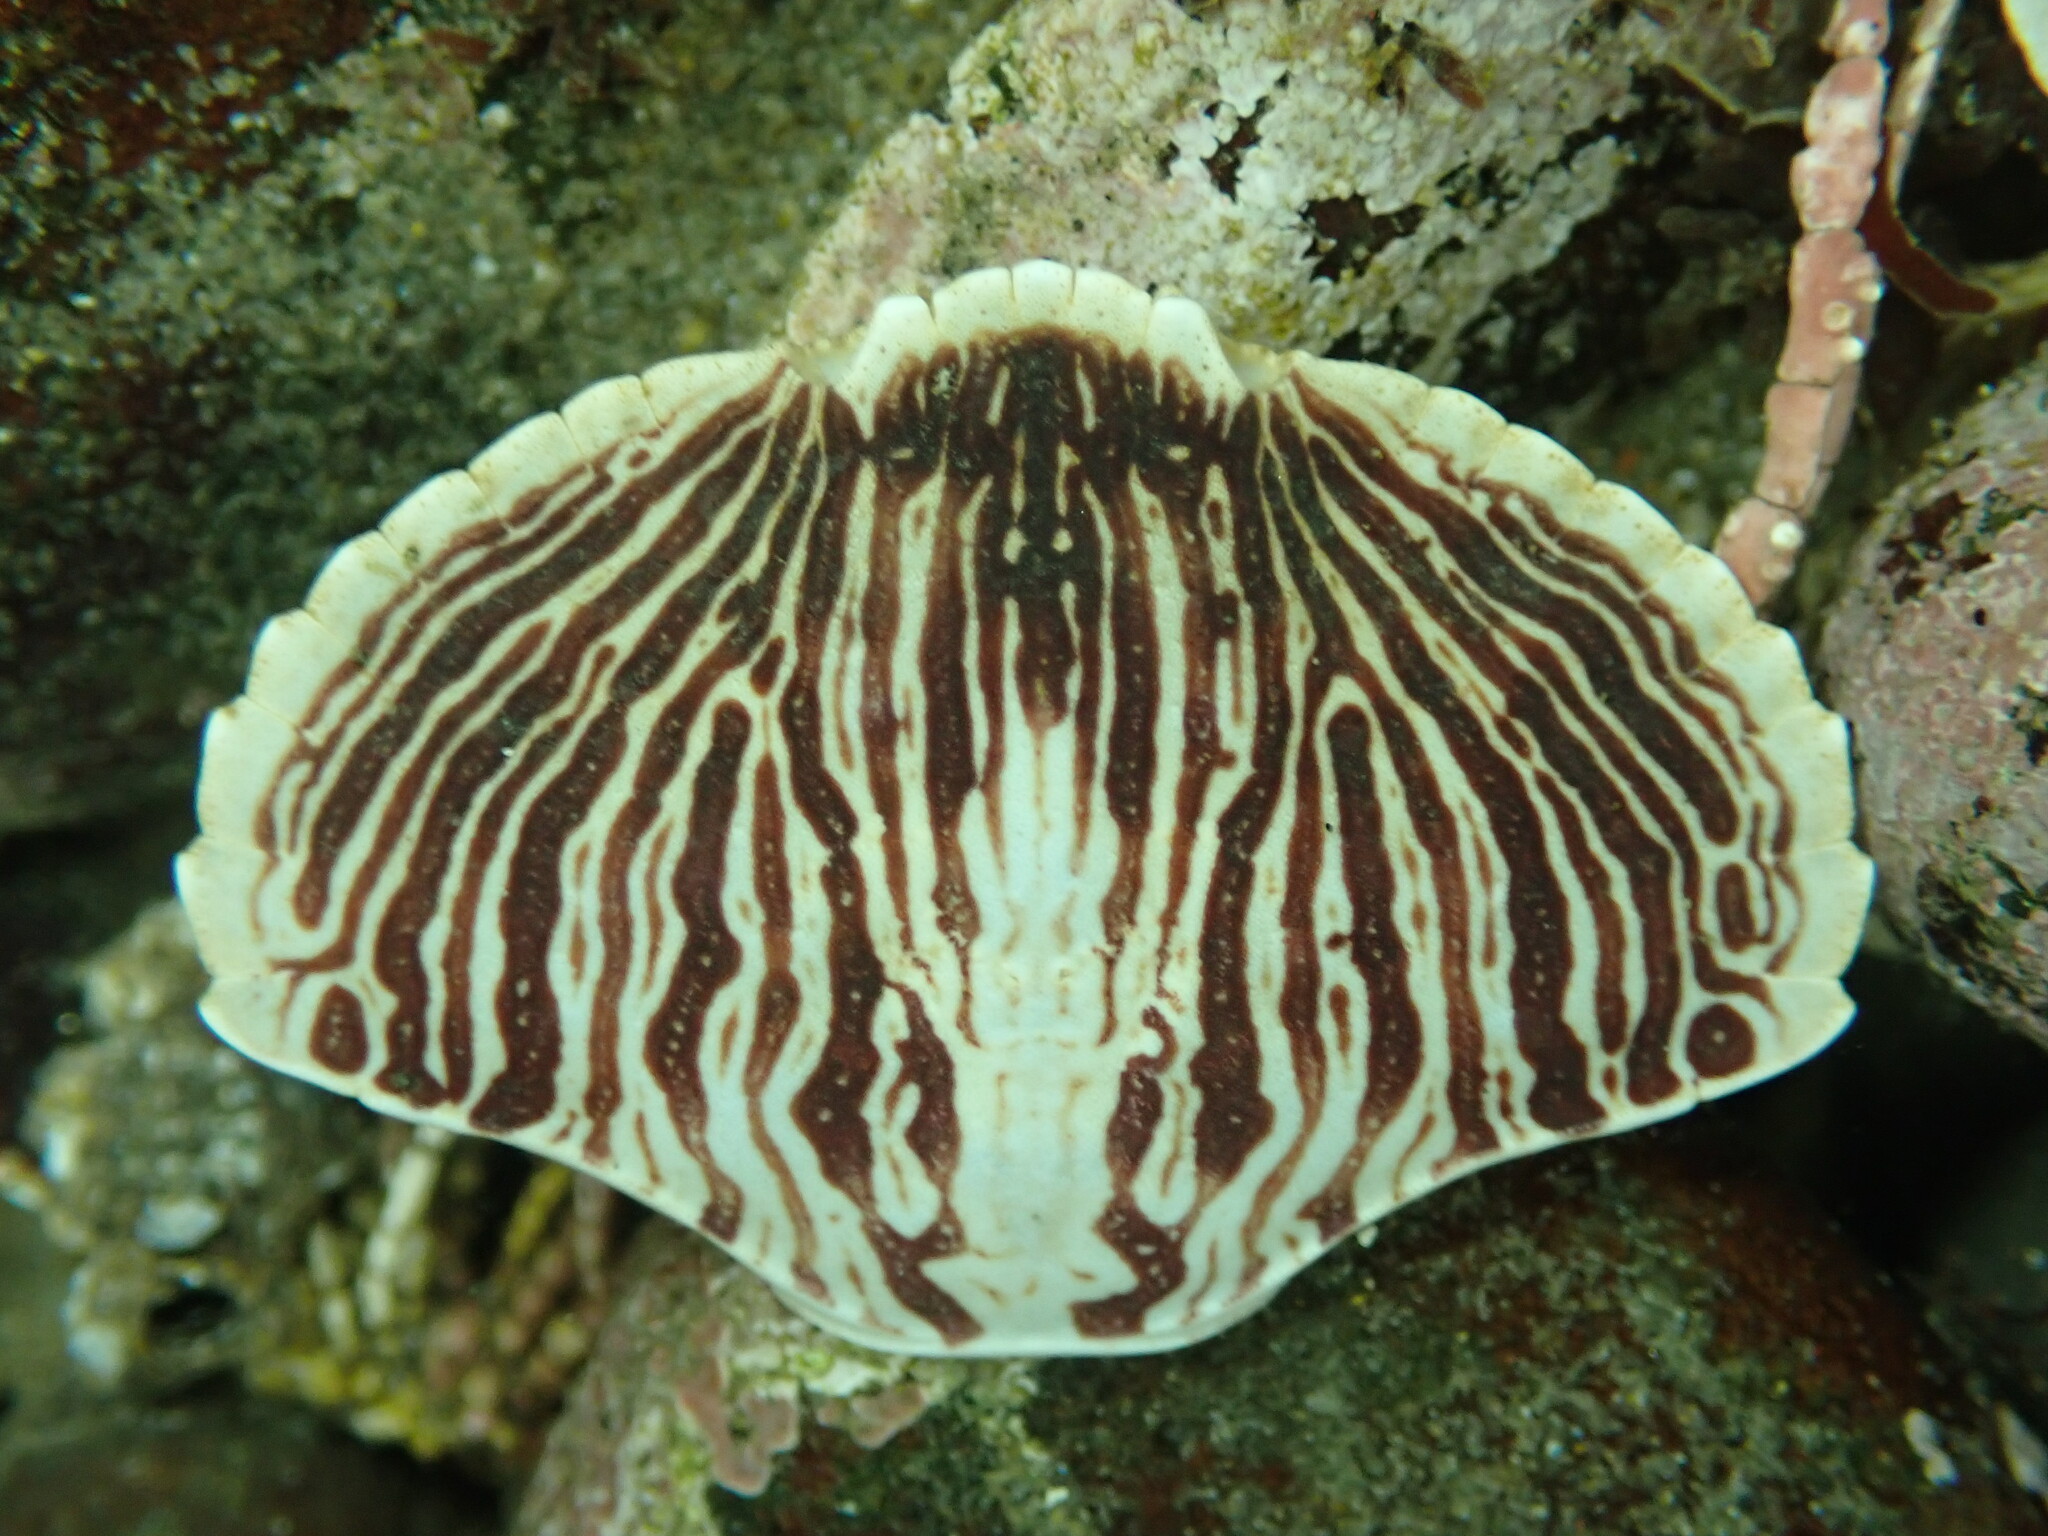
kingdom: Animalia
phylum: Arthropoda
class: Malacostraca
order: Decapoda
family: Cancridae
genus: Cancer
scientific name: Cancer productus
